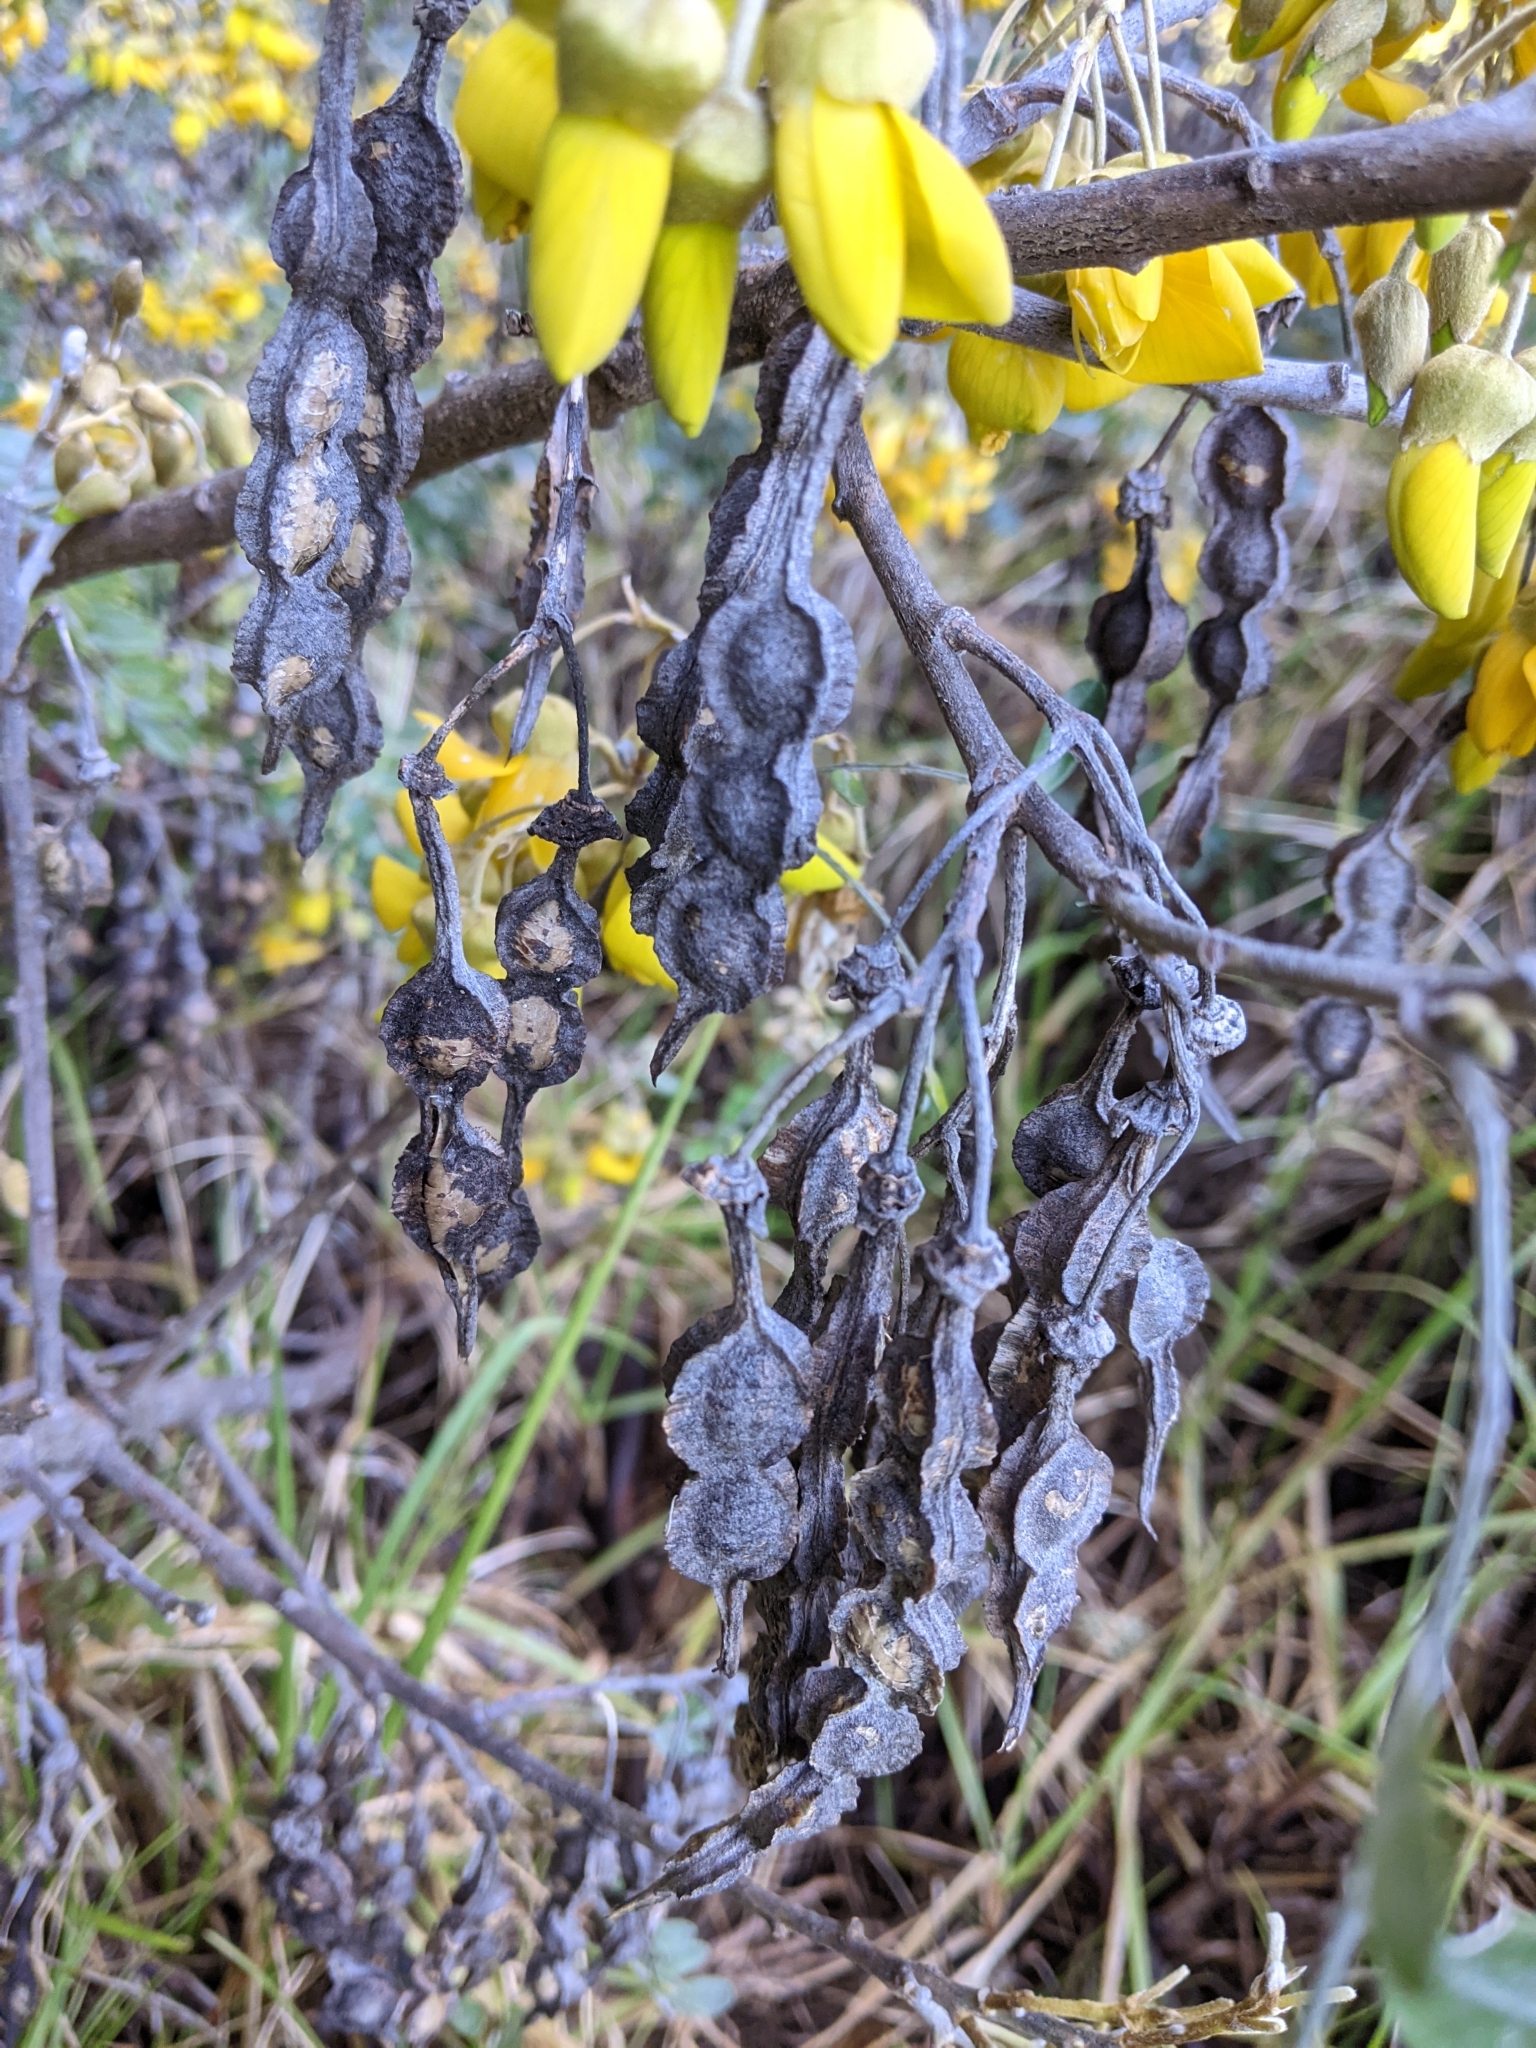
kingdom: Plantae
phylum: Tracheophyta
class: Magnoliopsida
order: Fabales
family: Fabaceae
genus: Sophora
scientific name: Sophora chrysophylla
